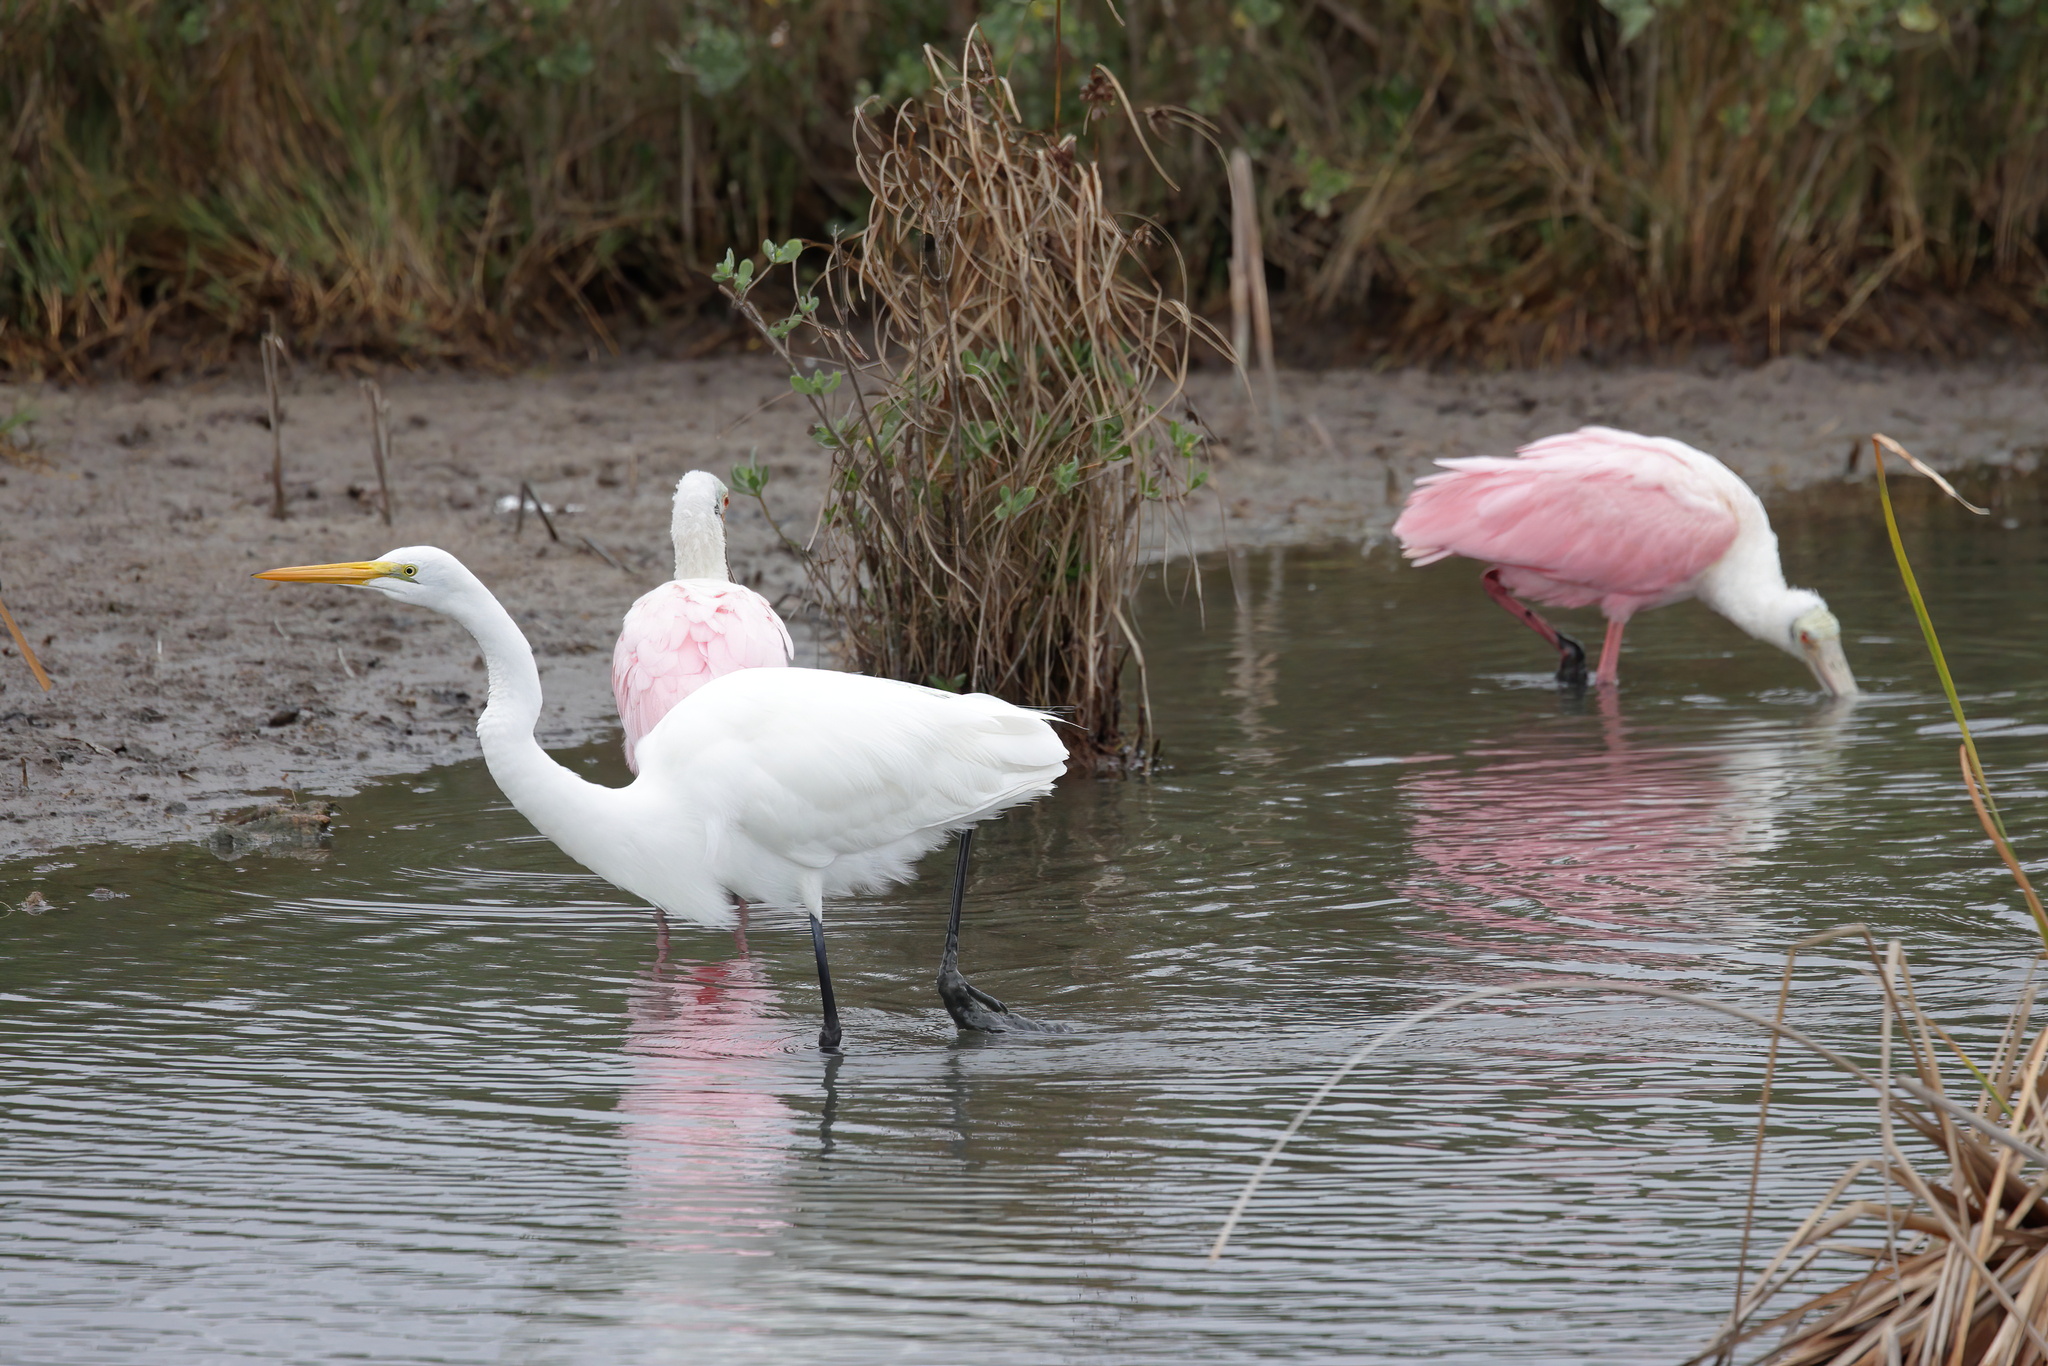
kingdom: Animalia
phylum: Chordata
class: Aves
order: Pelecaniformes
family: Ardeidae
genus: Ardea
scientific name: Ardea alba
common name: Great egret
